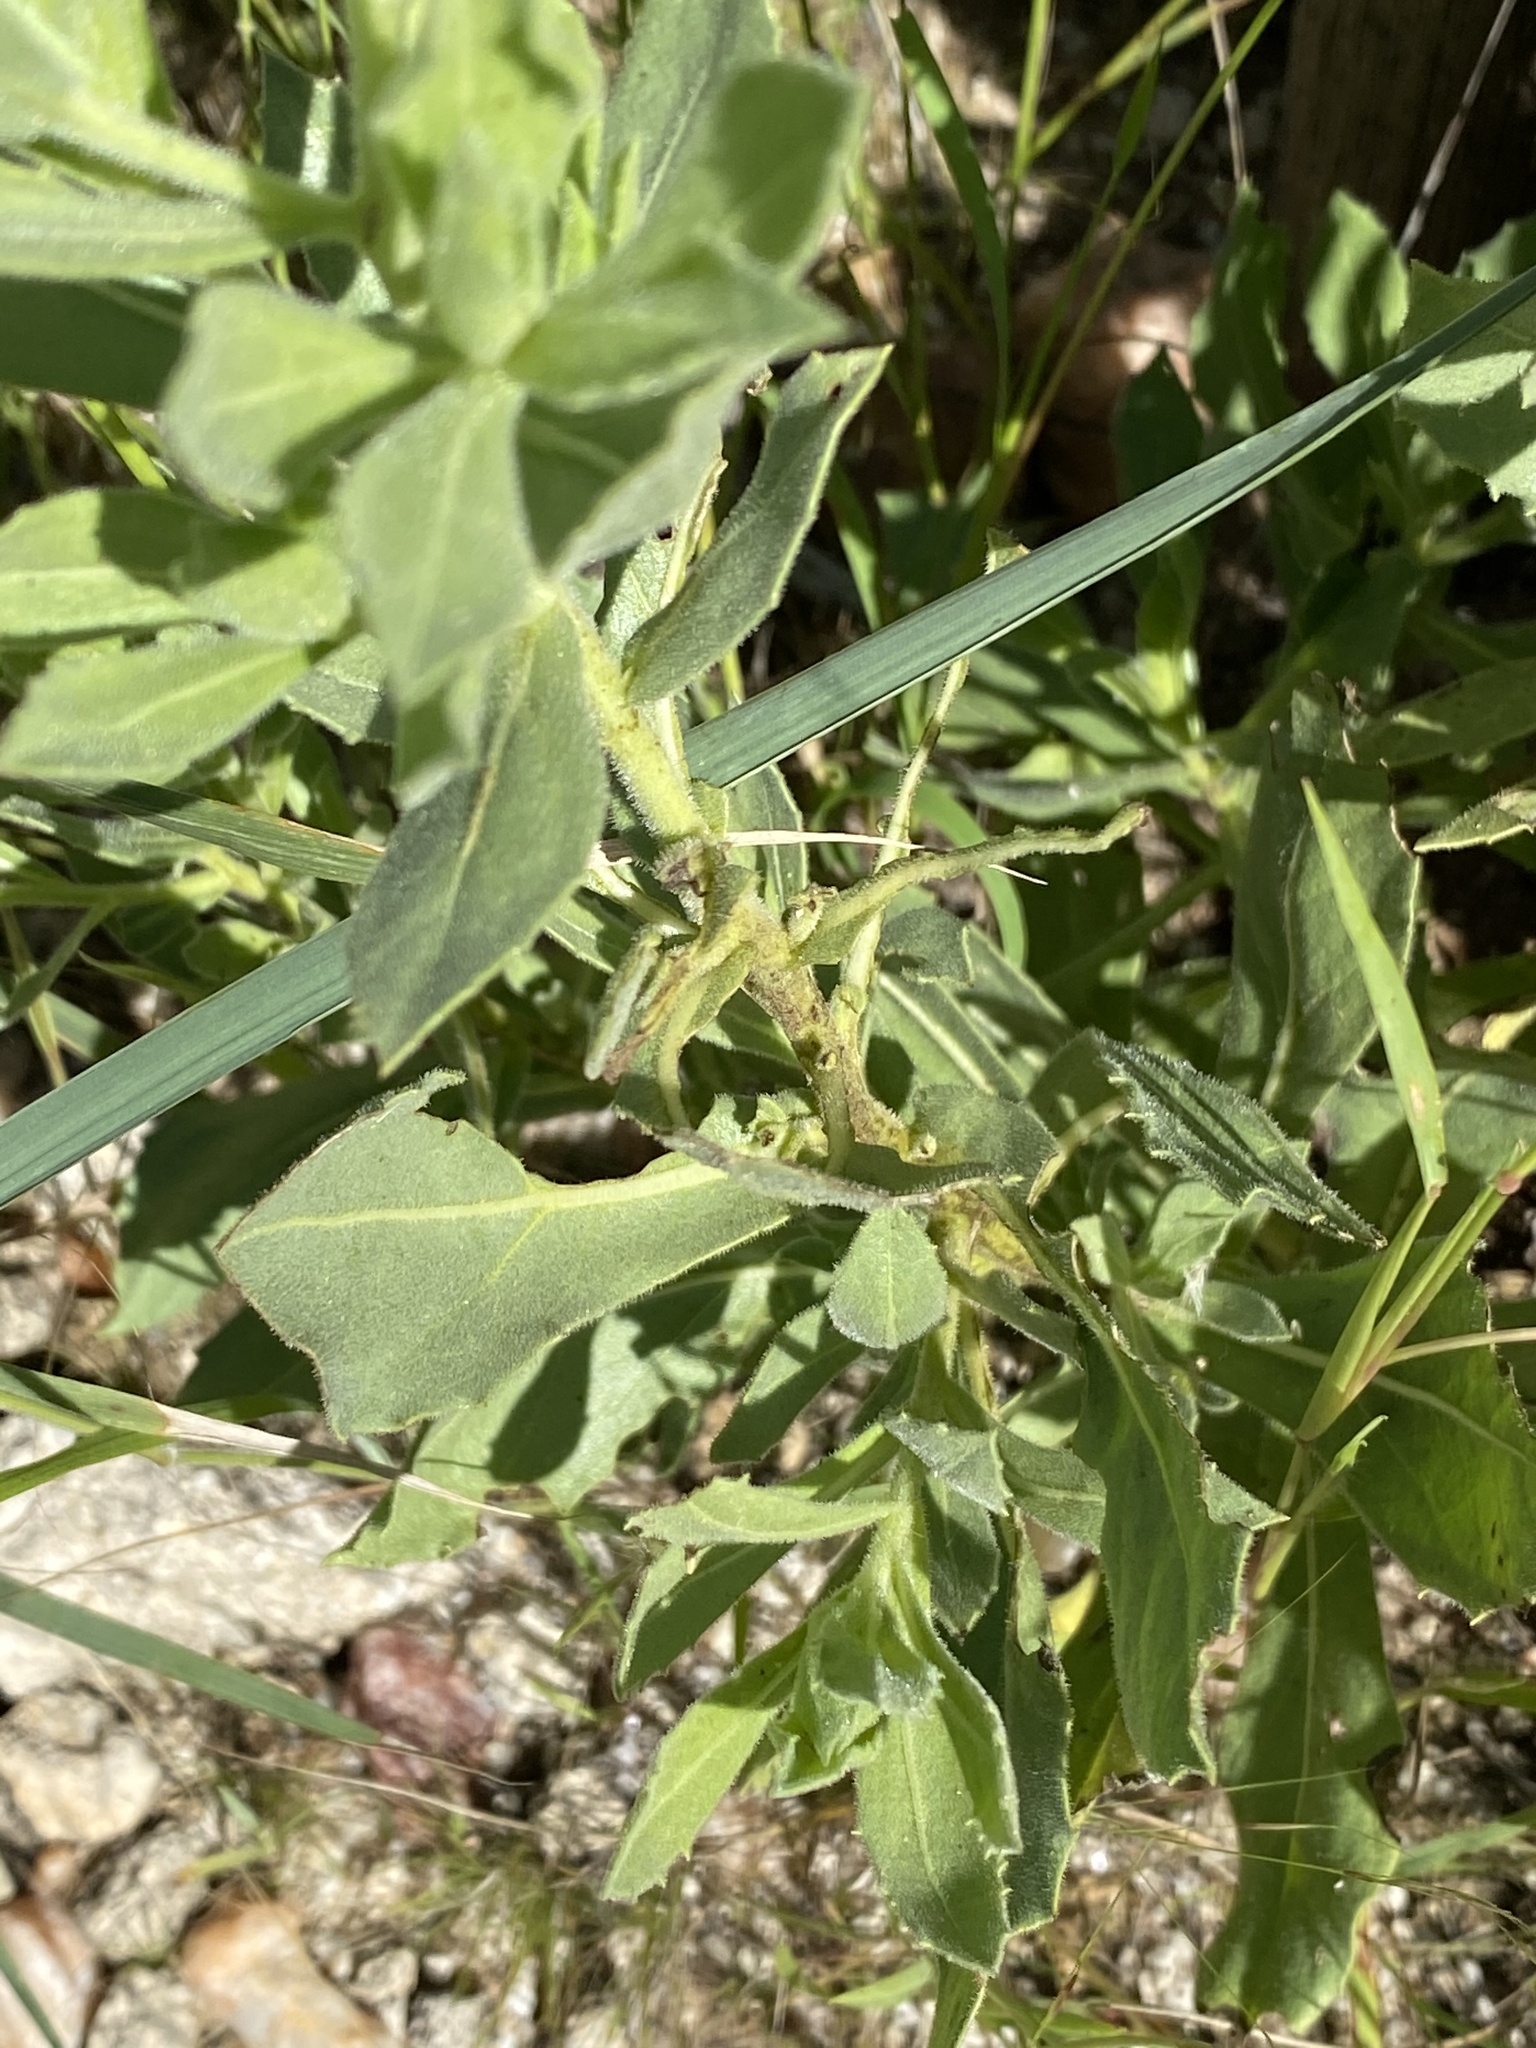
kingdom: Plantae
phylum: Tracheophyta
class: Magnoliopsida
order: Asterales
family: Asteraceae
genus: Pegolettia
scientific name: Pegolettia oxyodonta
